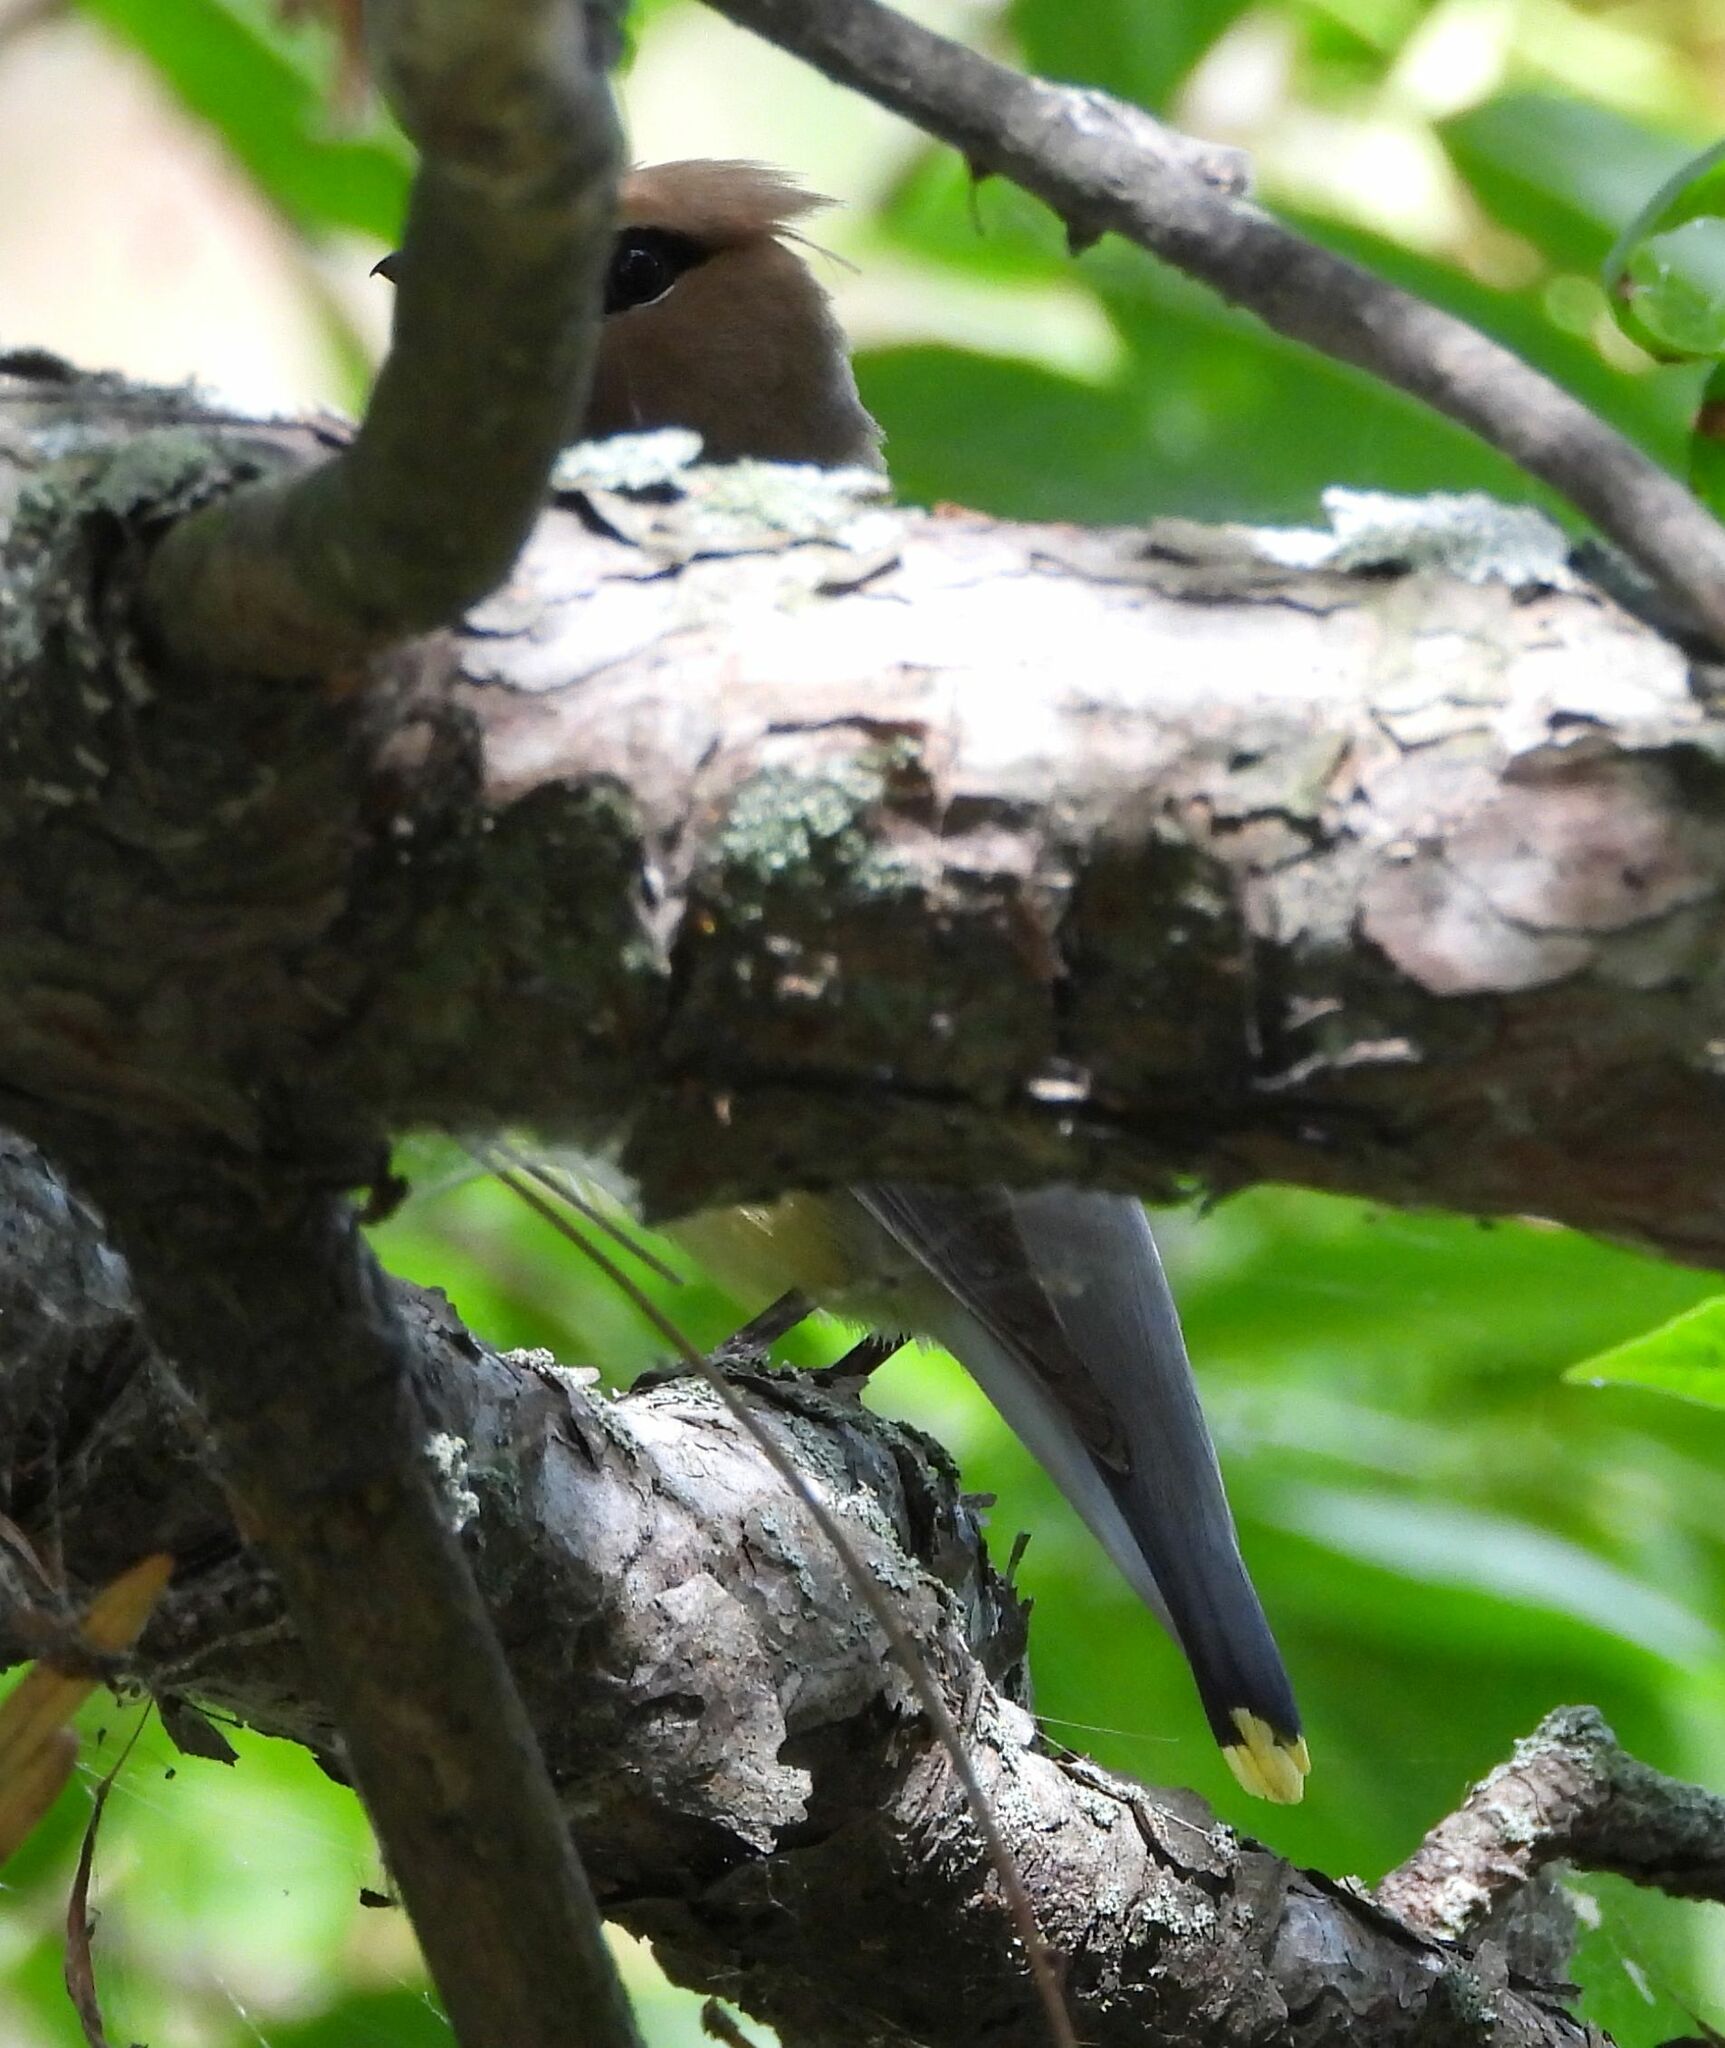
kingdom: Animalia
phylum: Chordata
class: Aves
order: Passeriformes
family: Bombycillidae
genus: Bombycilla
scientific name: Bombycilla cedrorum
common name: Cedar waxwing
